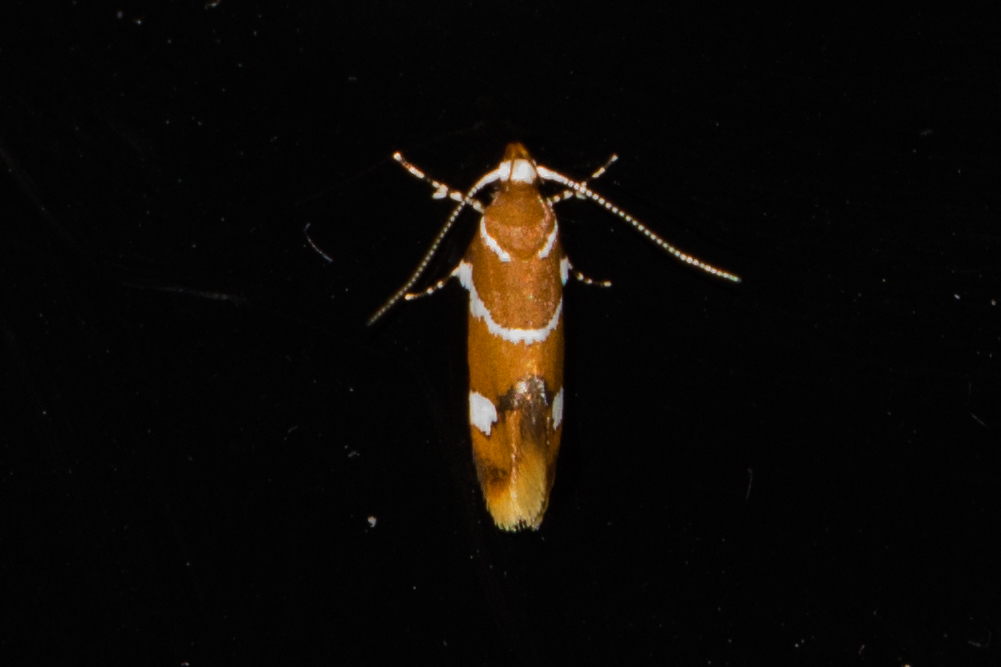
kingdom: Animalia
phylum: Arthropoda
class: Insecta
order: Lepidoptera
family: Oecophoridae
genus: Promalactis
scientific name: Promalactis suzukiella
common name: Moth
